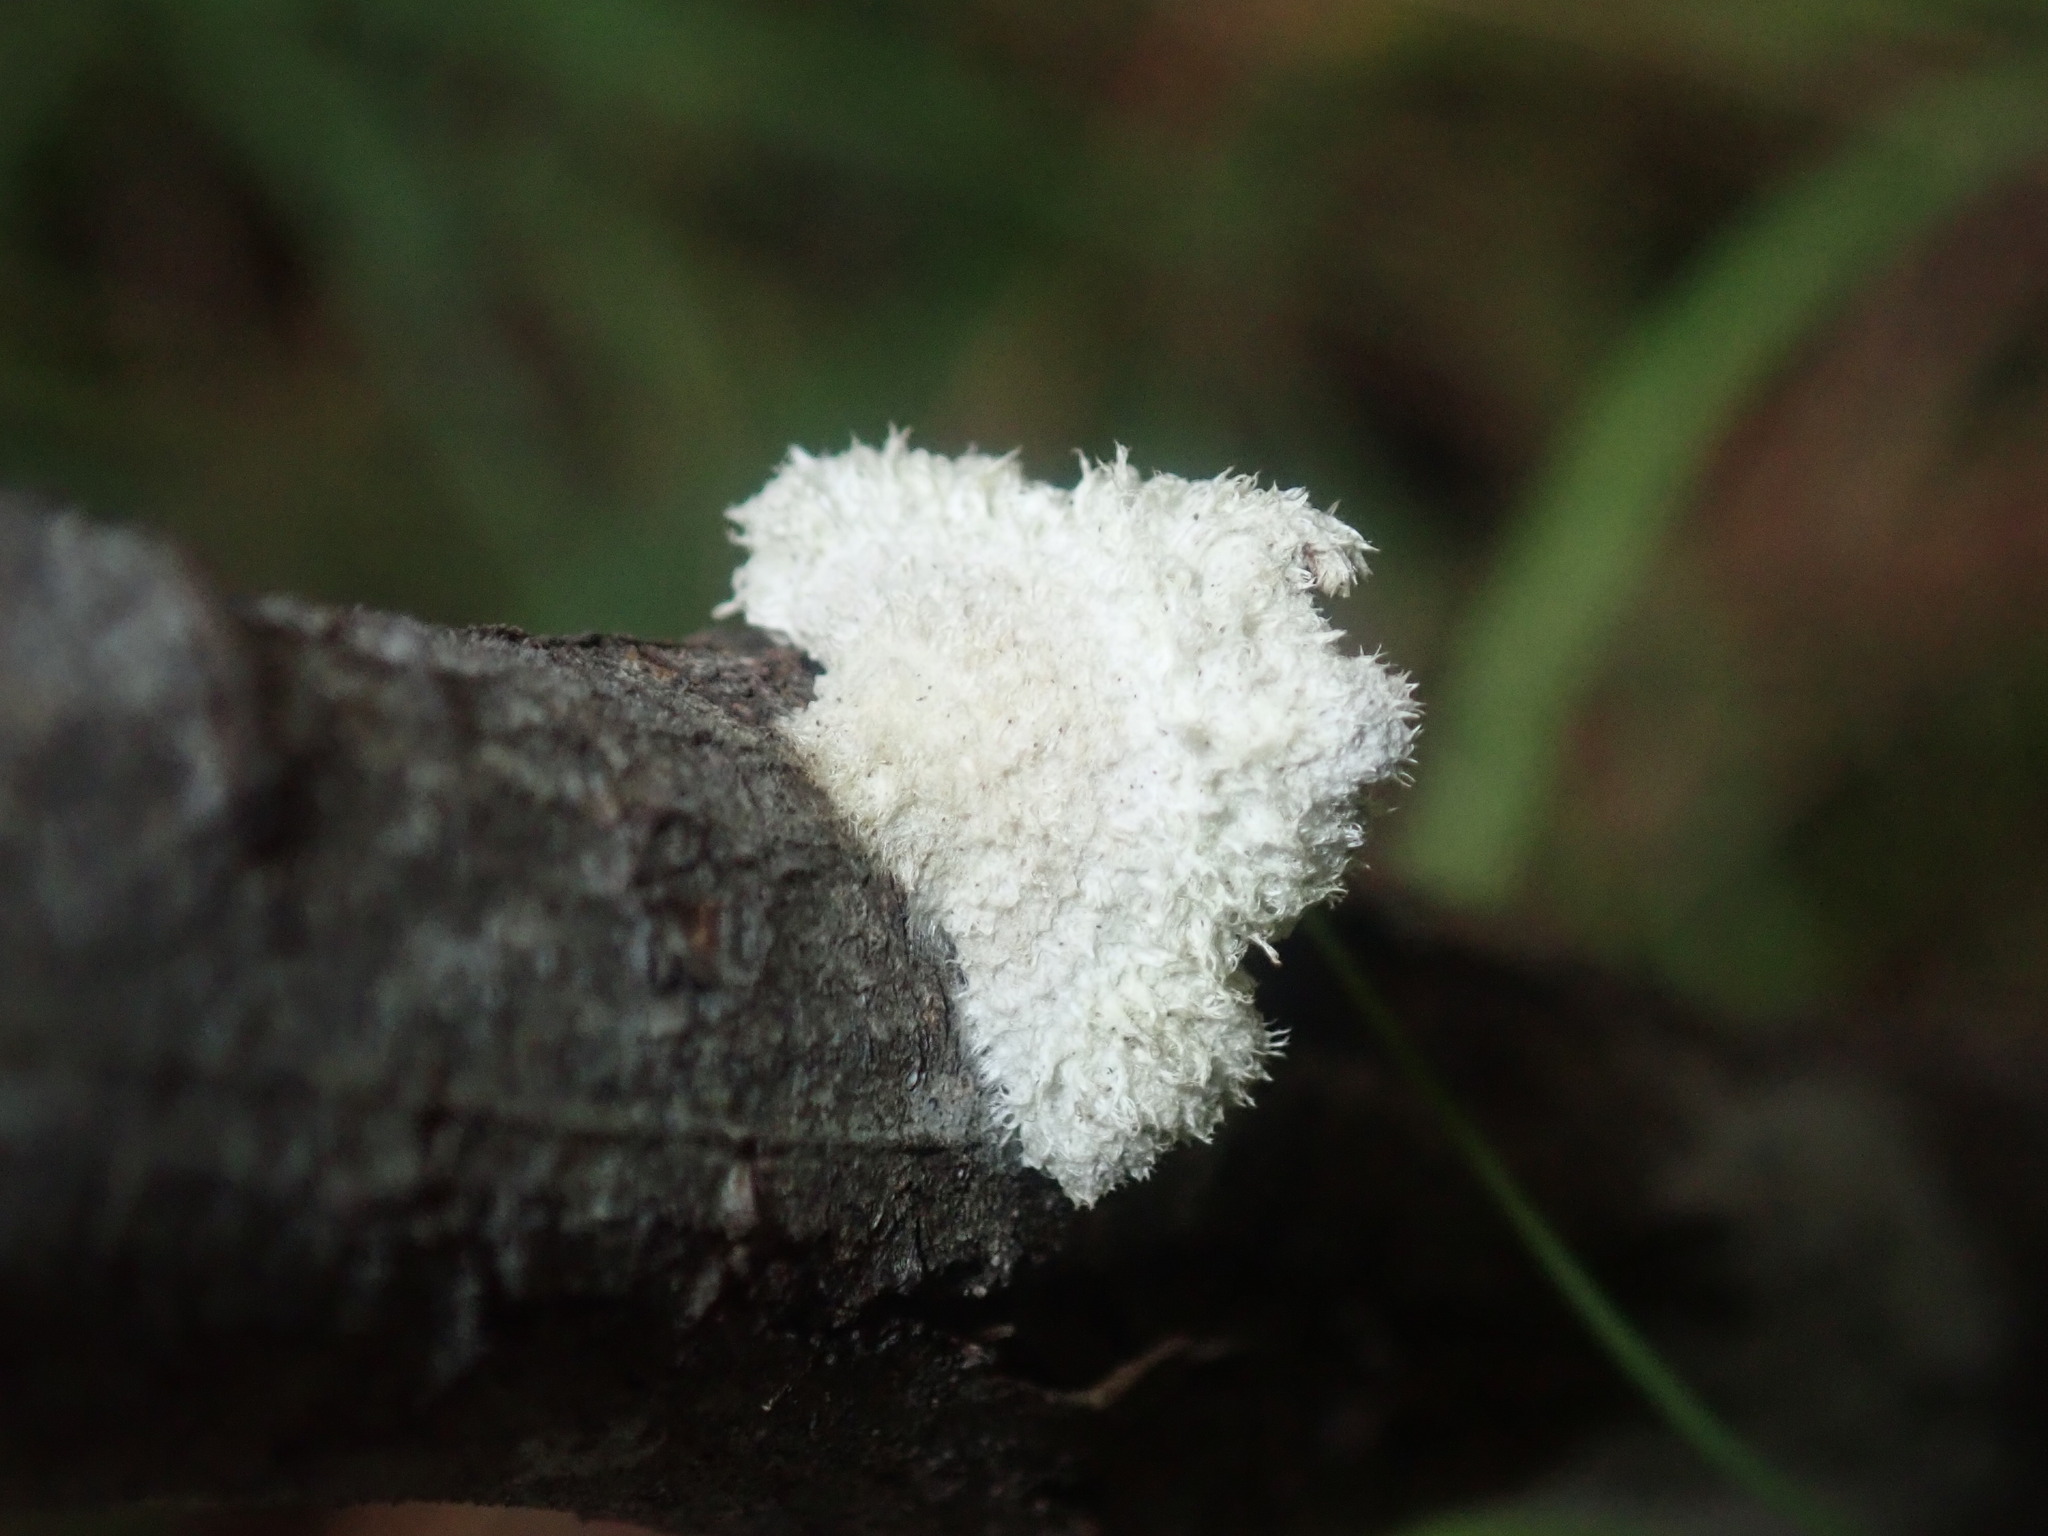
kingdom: Fungi
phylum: Basidiomycota
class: Agaricomycetes
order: Agaricales
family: Schizophyllaceae
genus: Schizophyllum
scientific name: Schizophyllum commune
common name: Common porecrust
